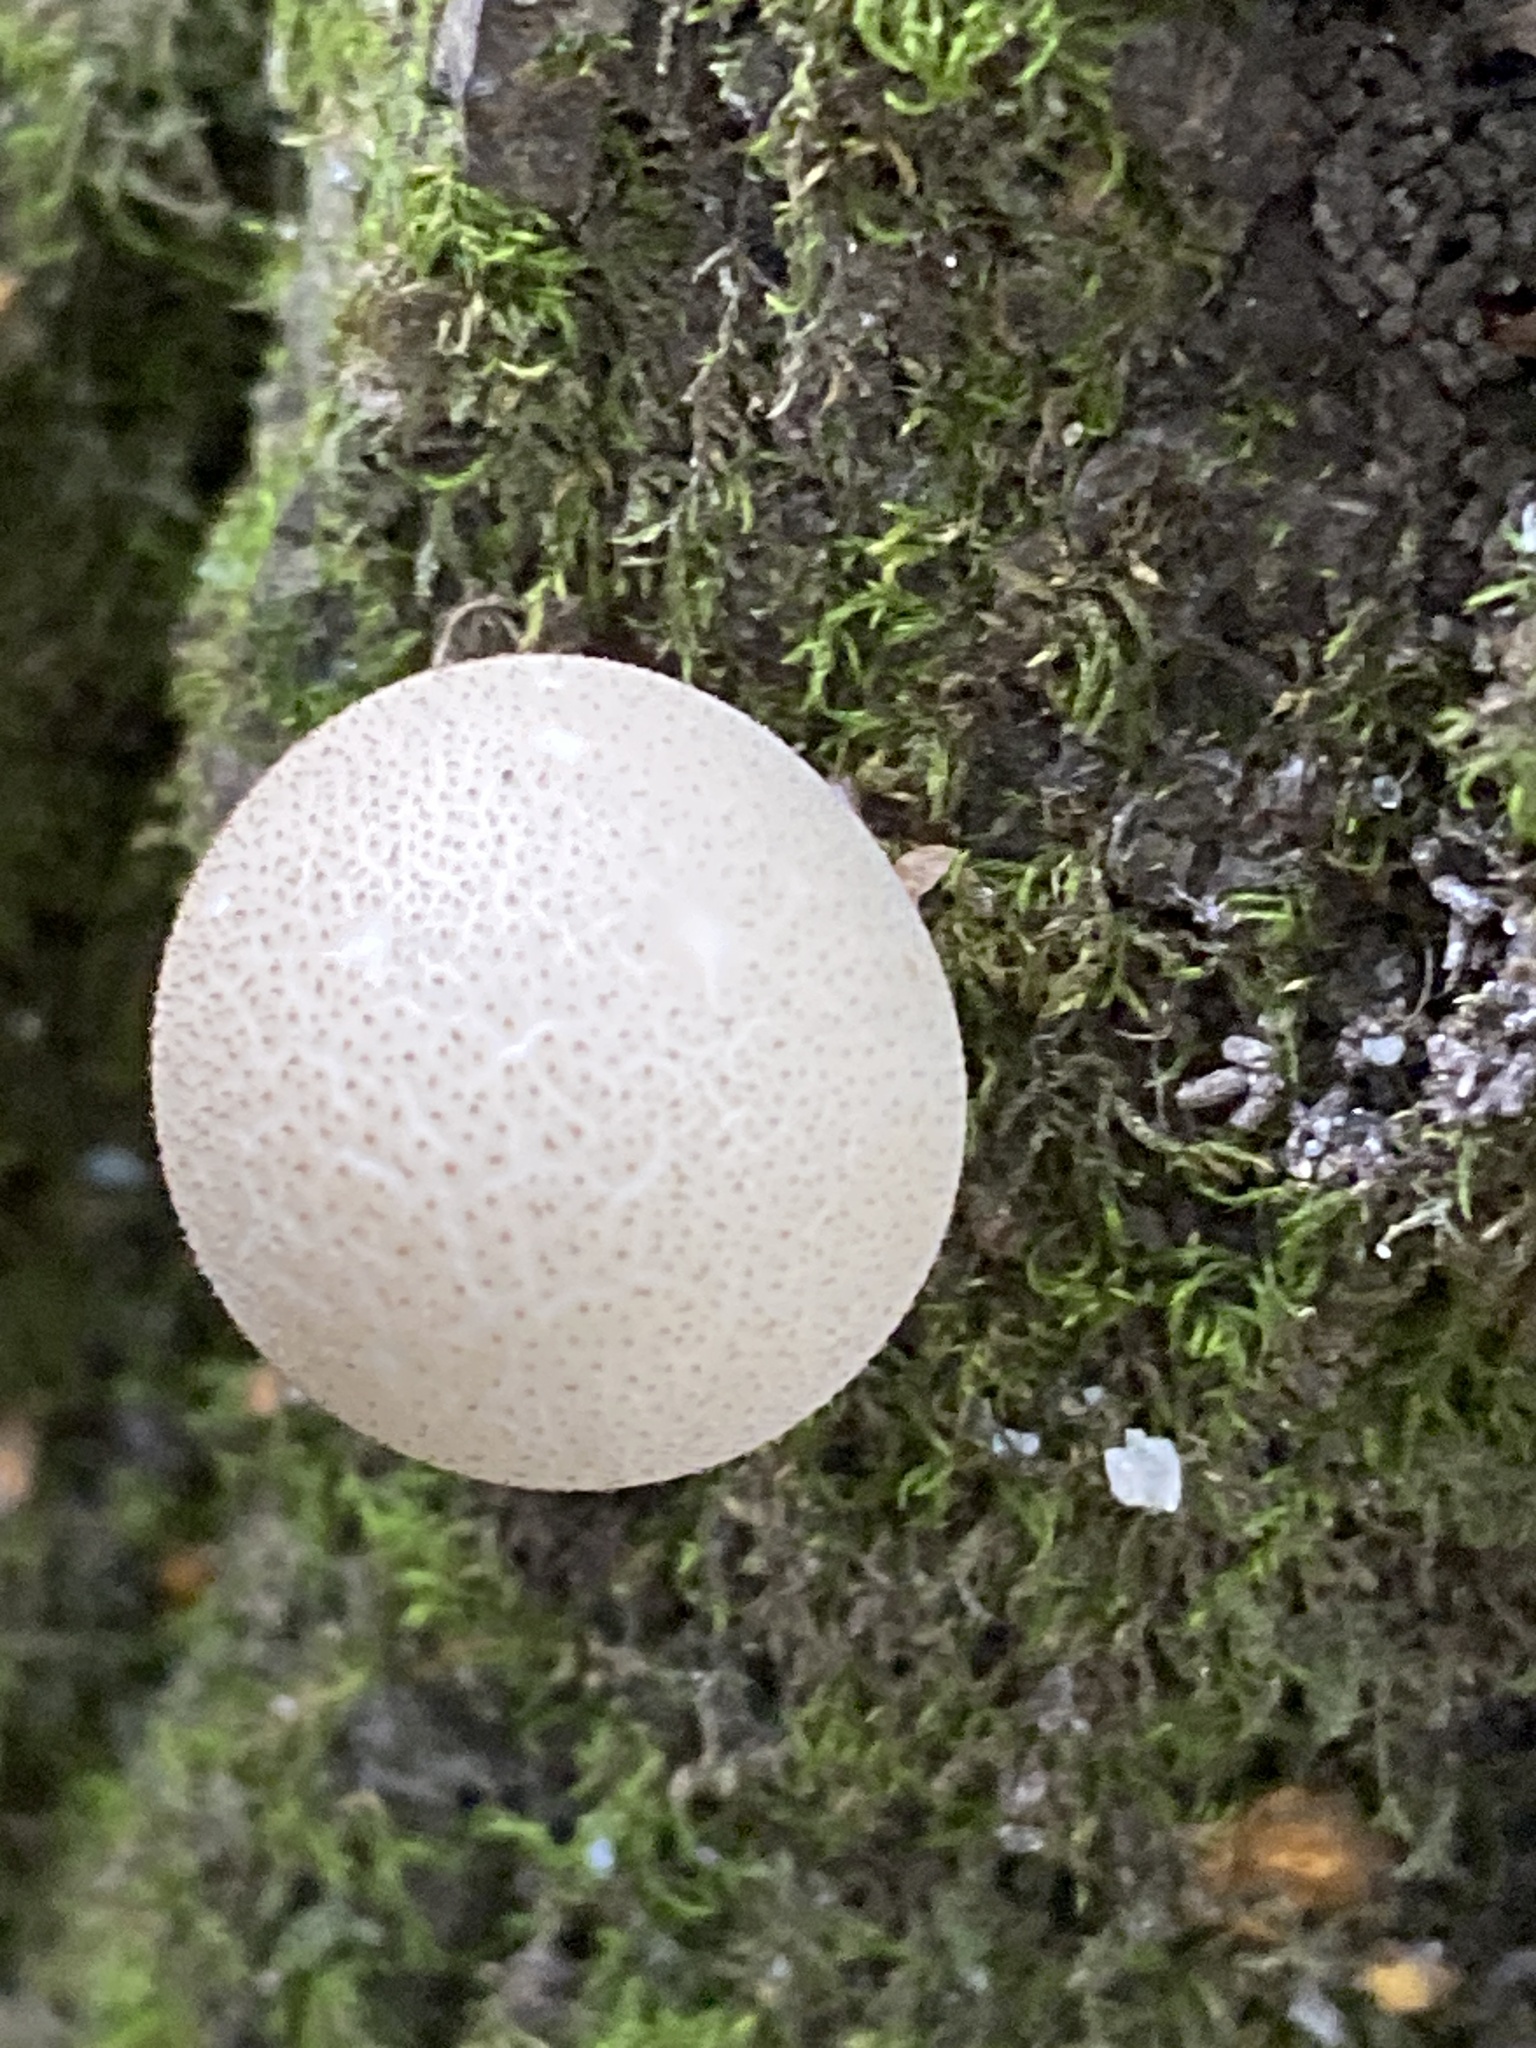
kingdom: Fungi
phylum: Basidiomycota
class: Agaricomycetes
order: Agaricales
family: Lycoperdaceae
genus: Apioperdon
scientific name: Apioperdon pyriforme
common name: Pear-shaped puffball
